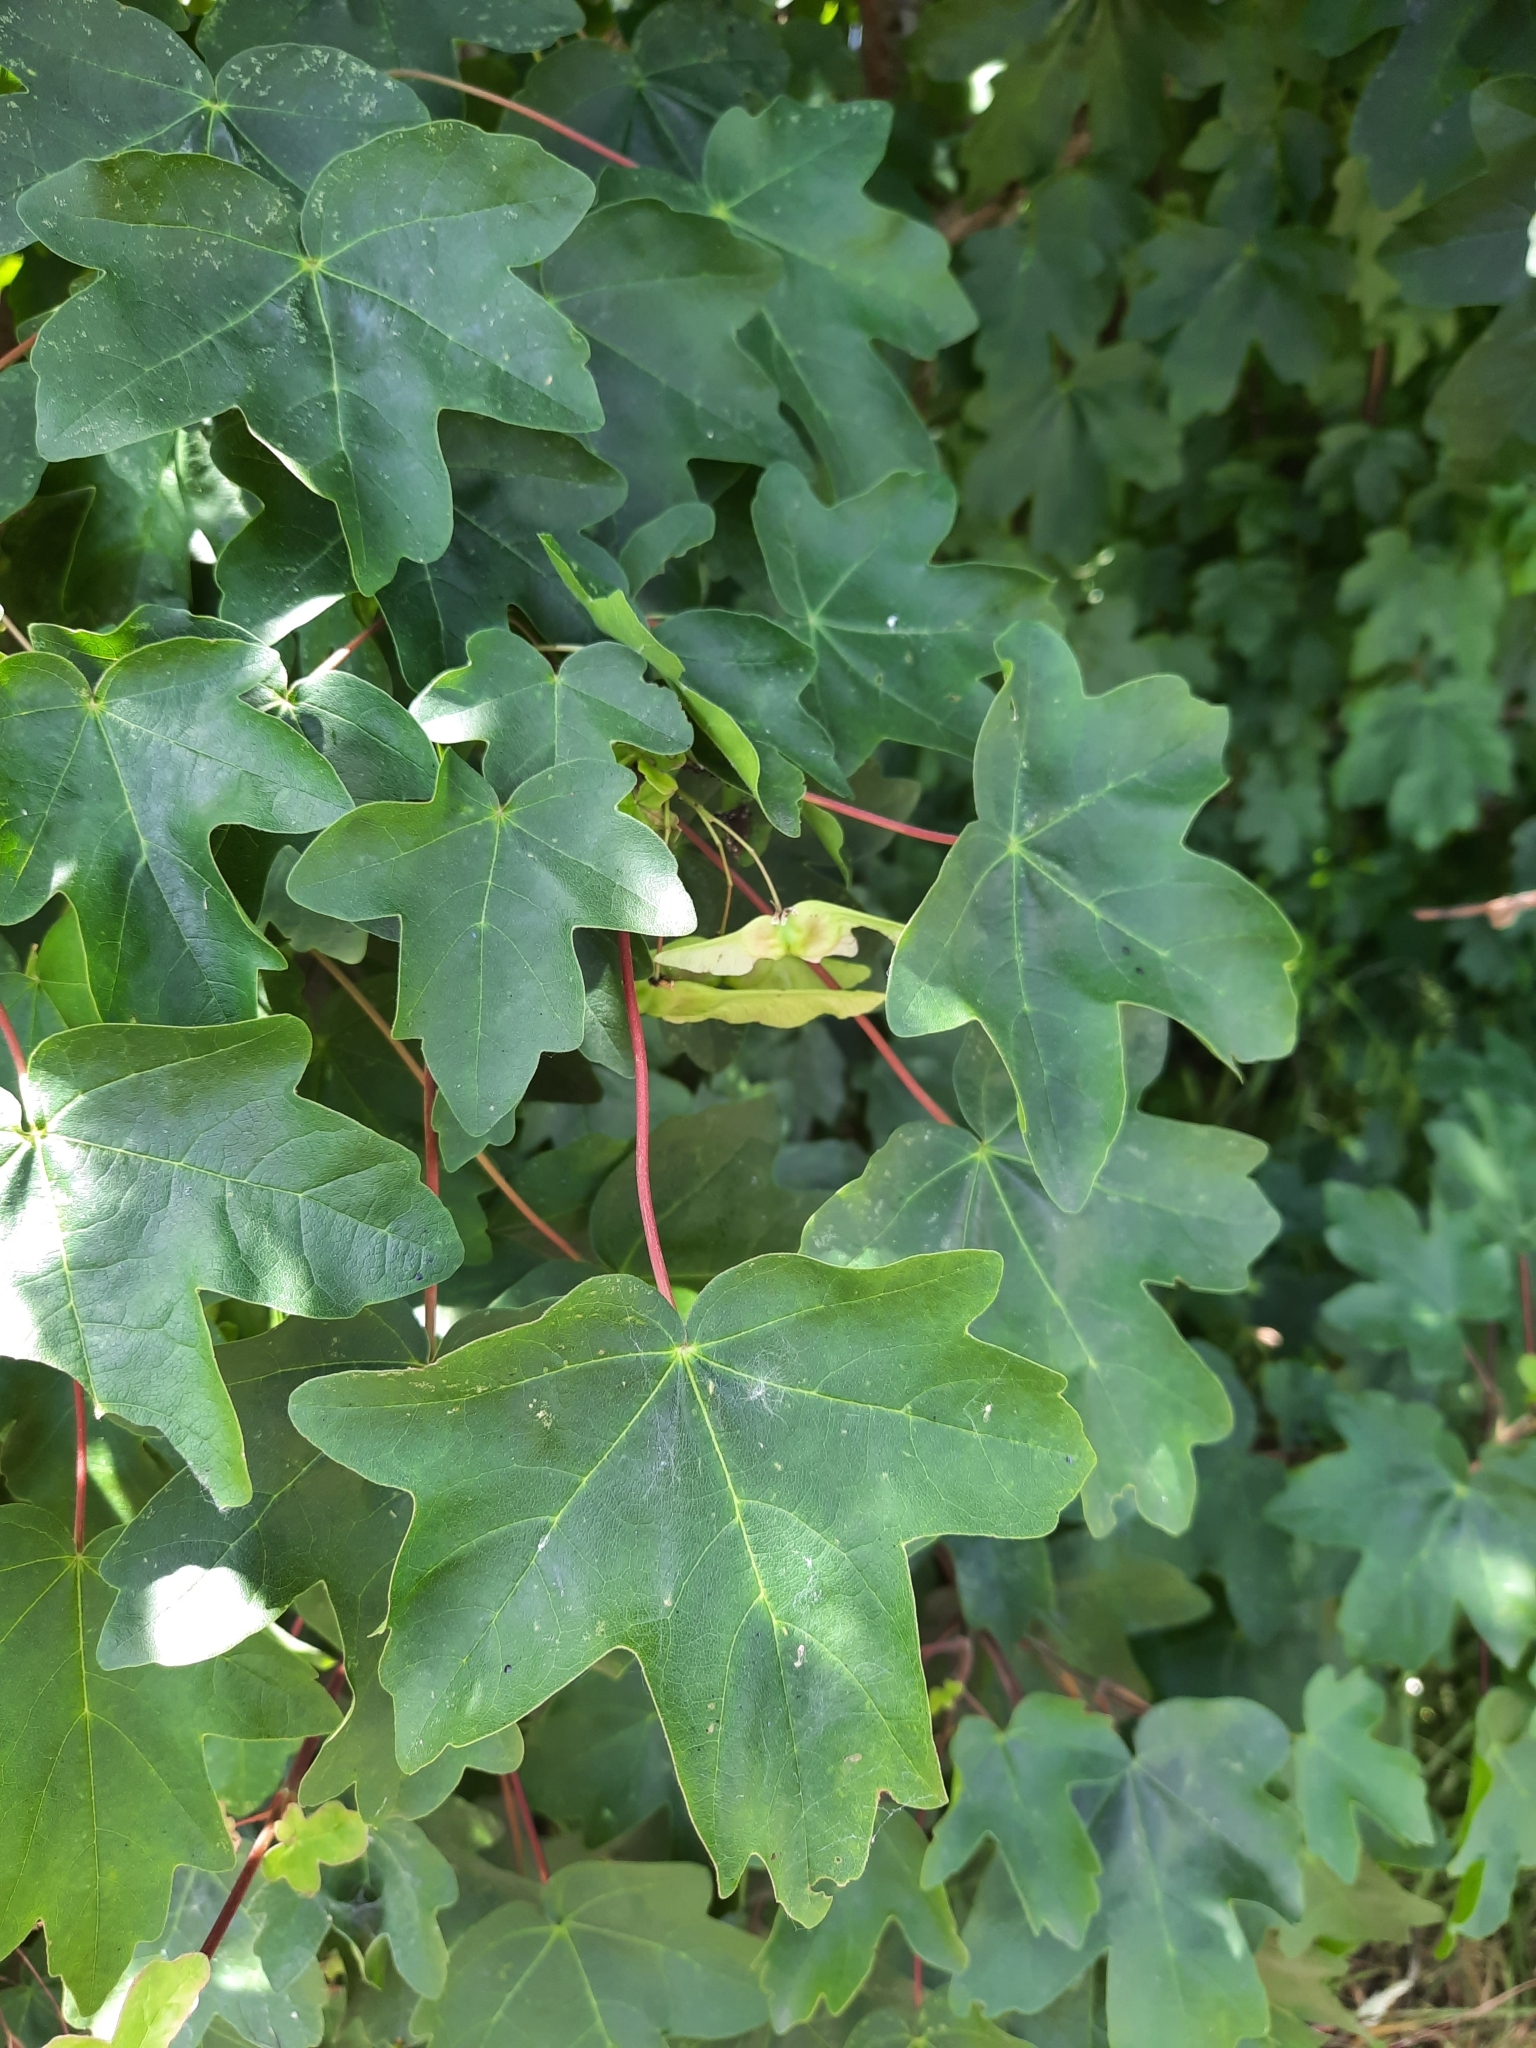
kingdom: Plantae
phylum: Tracheophyta
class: Magnoliopsida
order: Sapindales
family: Sapindaceae
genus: Acer
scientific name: Acer campestre
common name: Field maple
